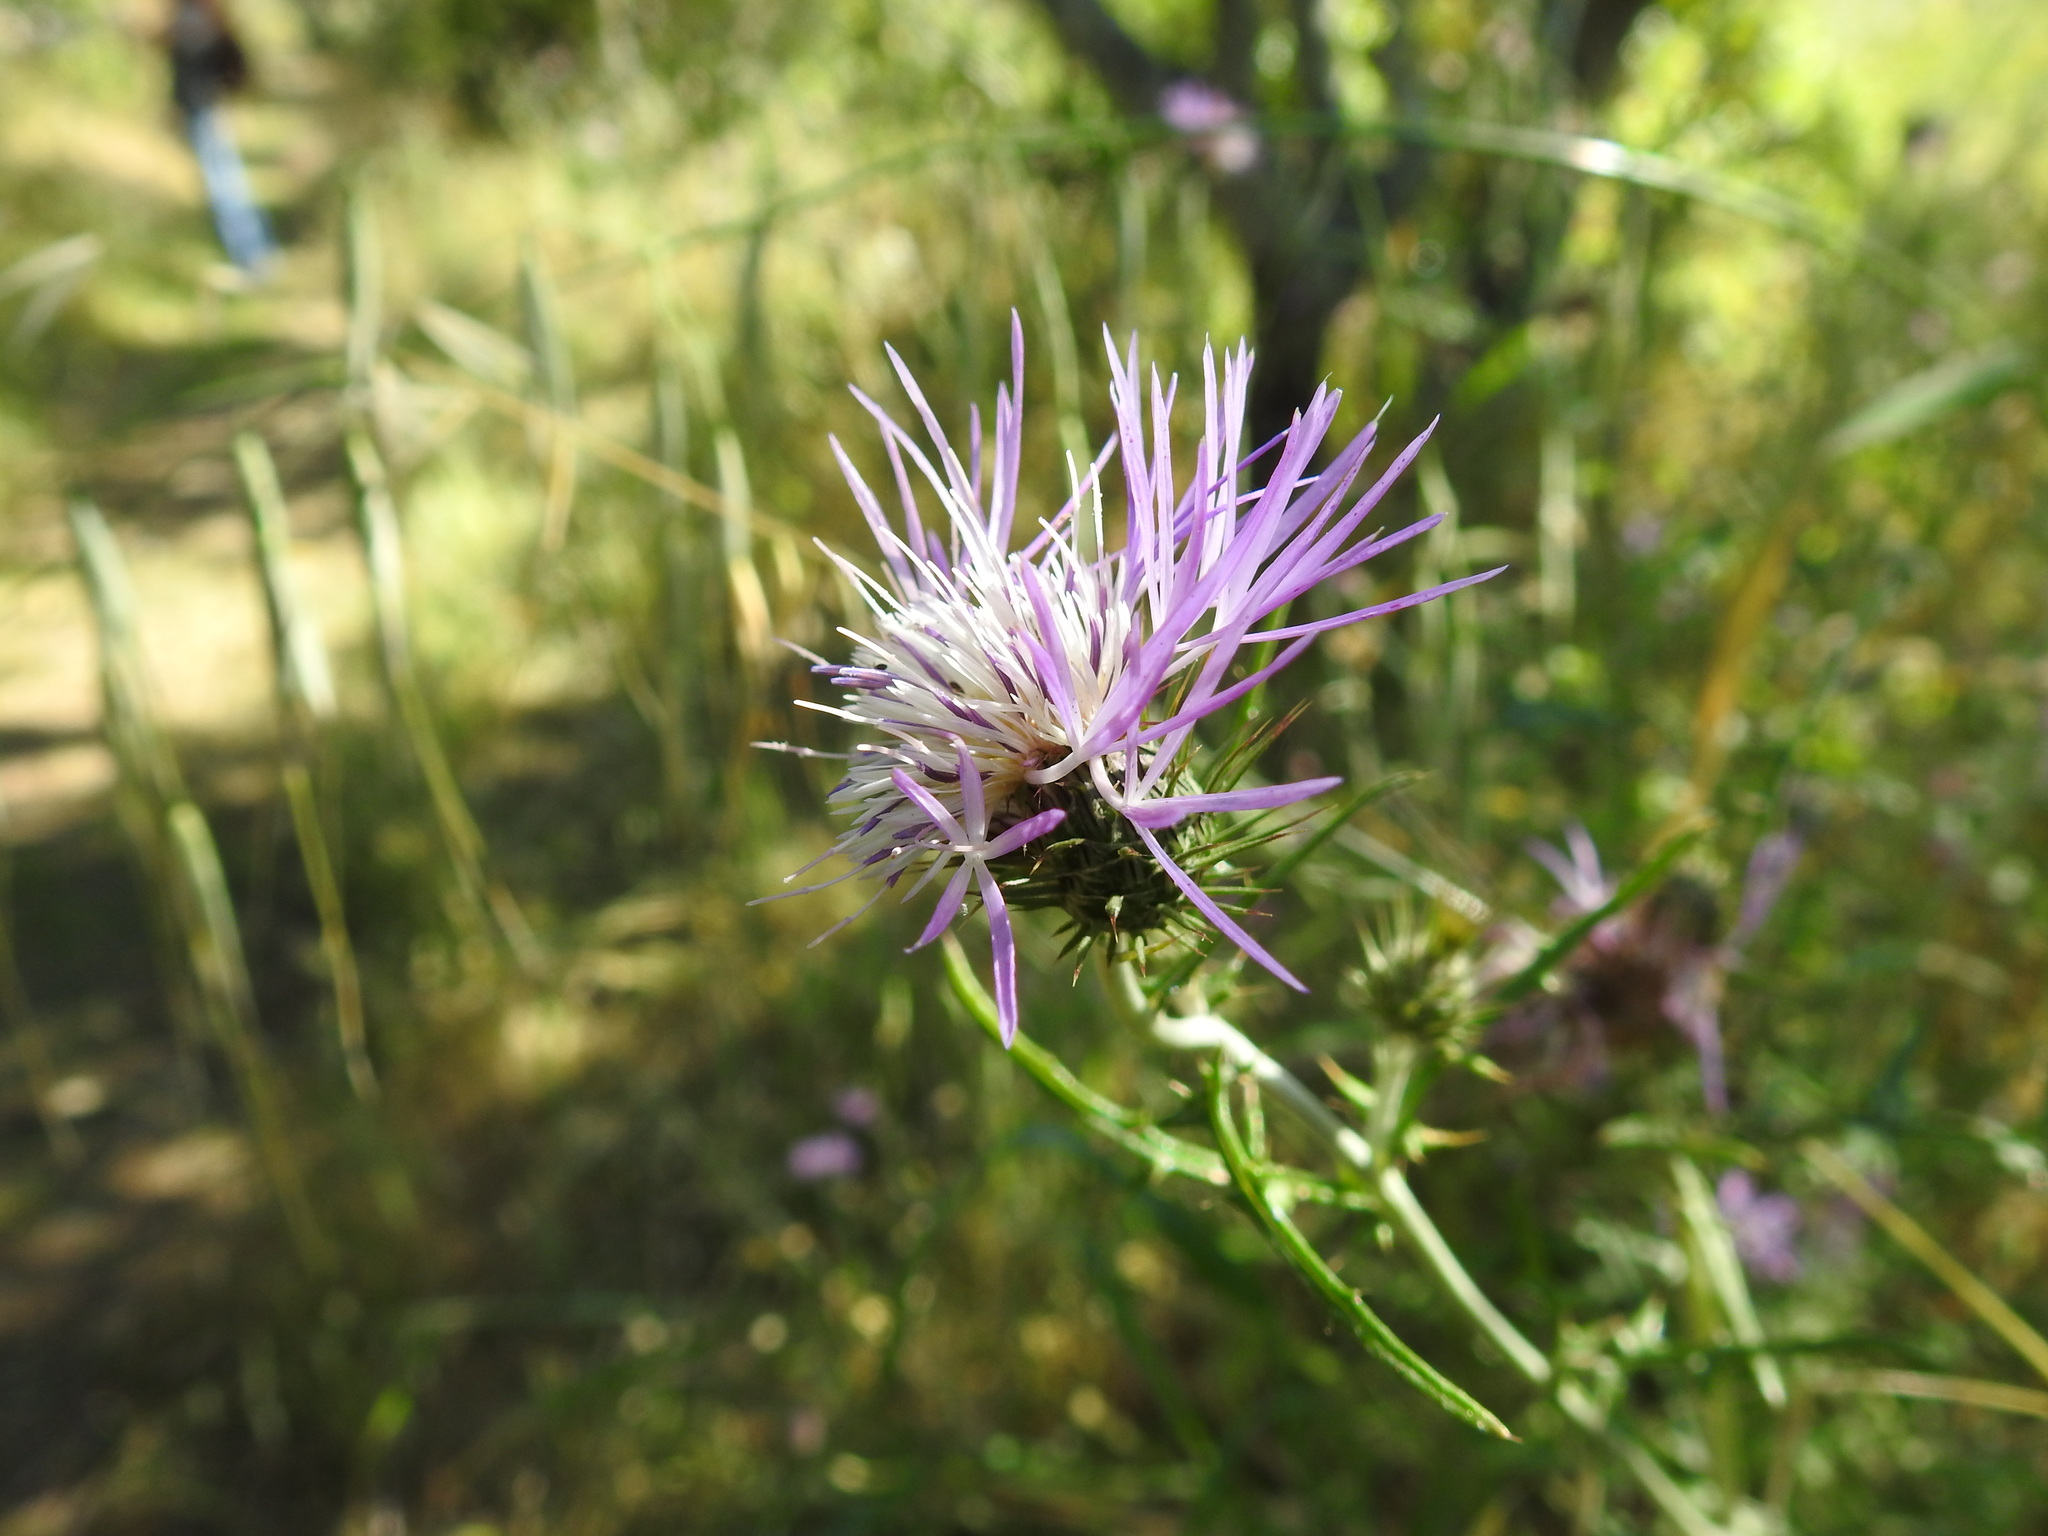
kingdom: Plantae
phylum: Tracheophyta
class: Magnoliopsida
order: Asterales
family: Asteraceae
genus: Galactites
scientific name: Galactites tomentosa
